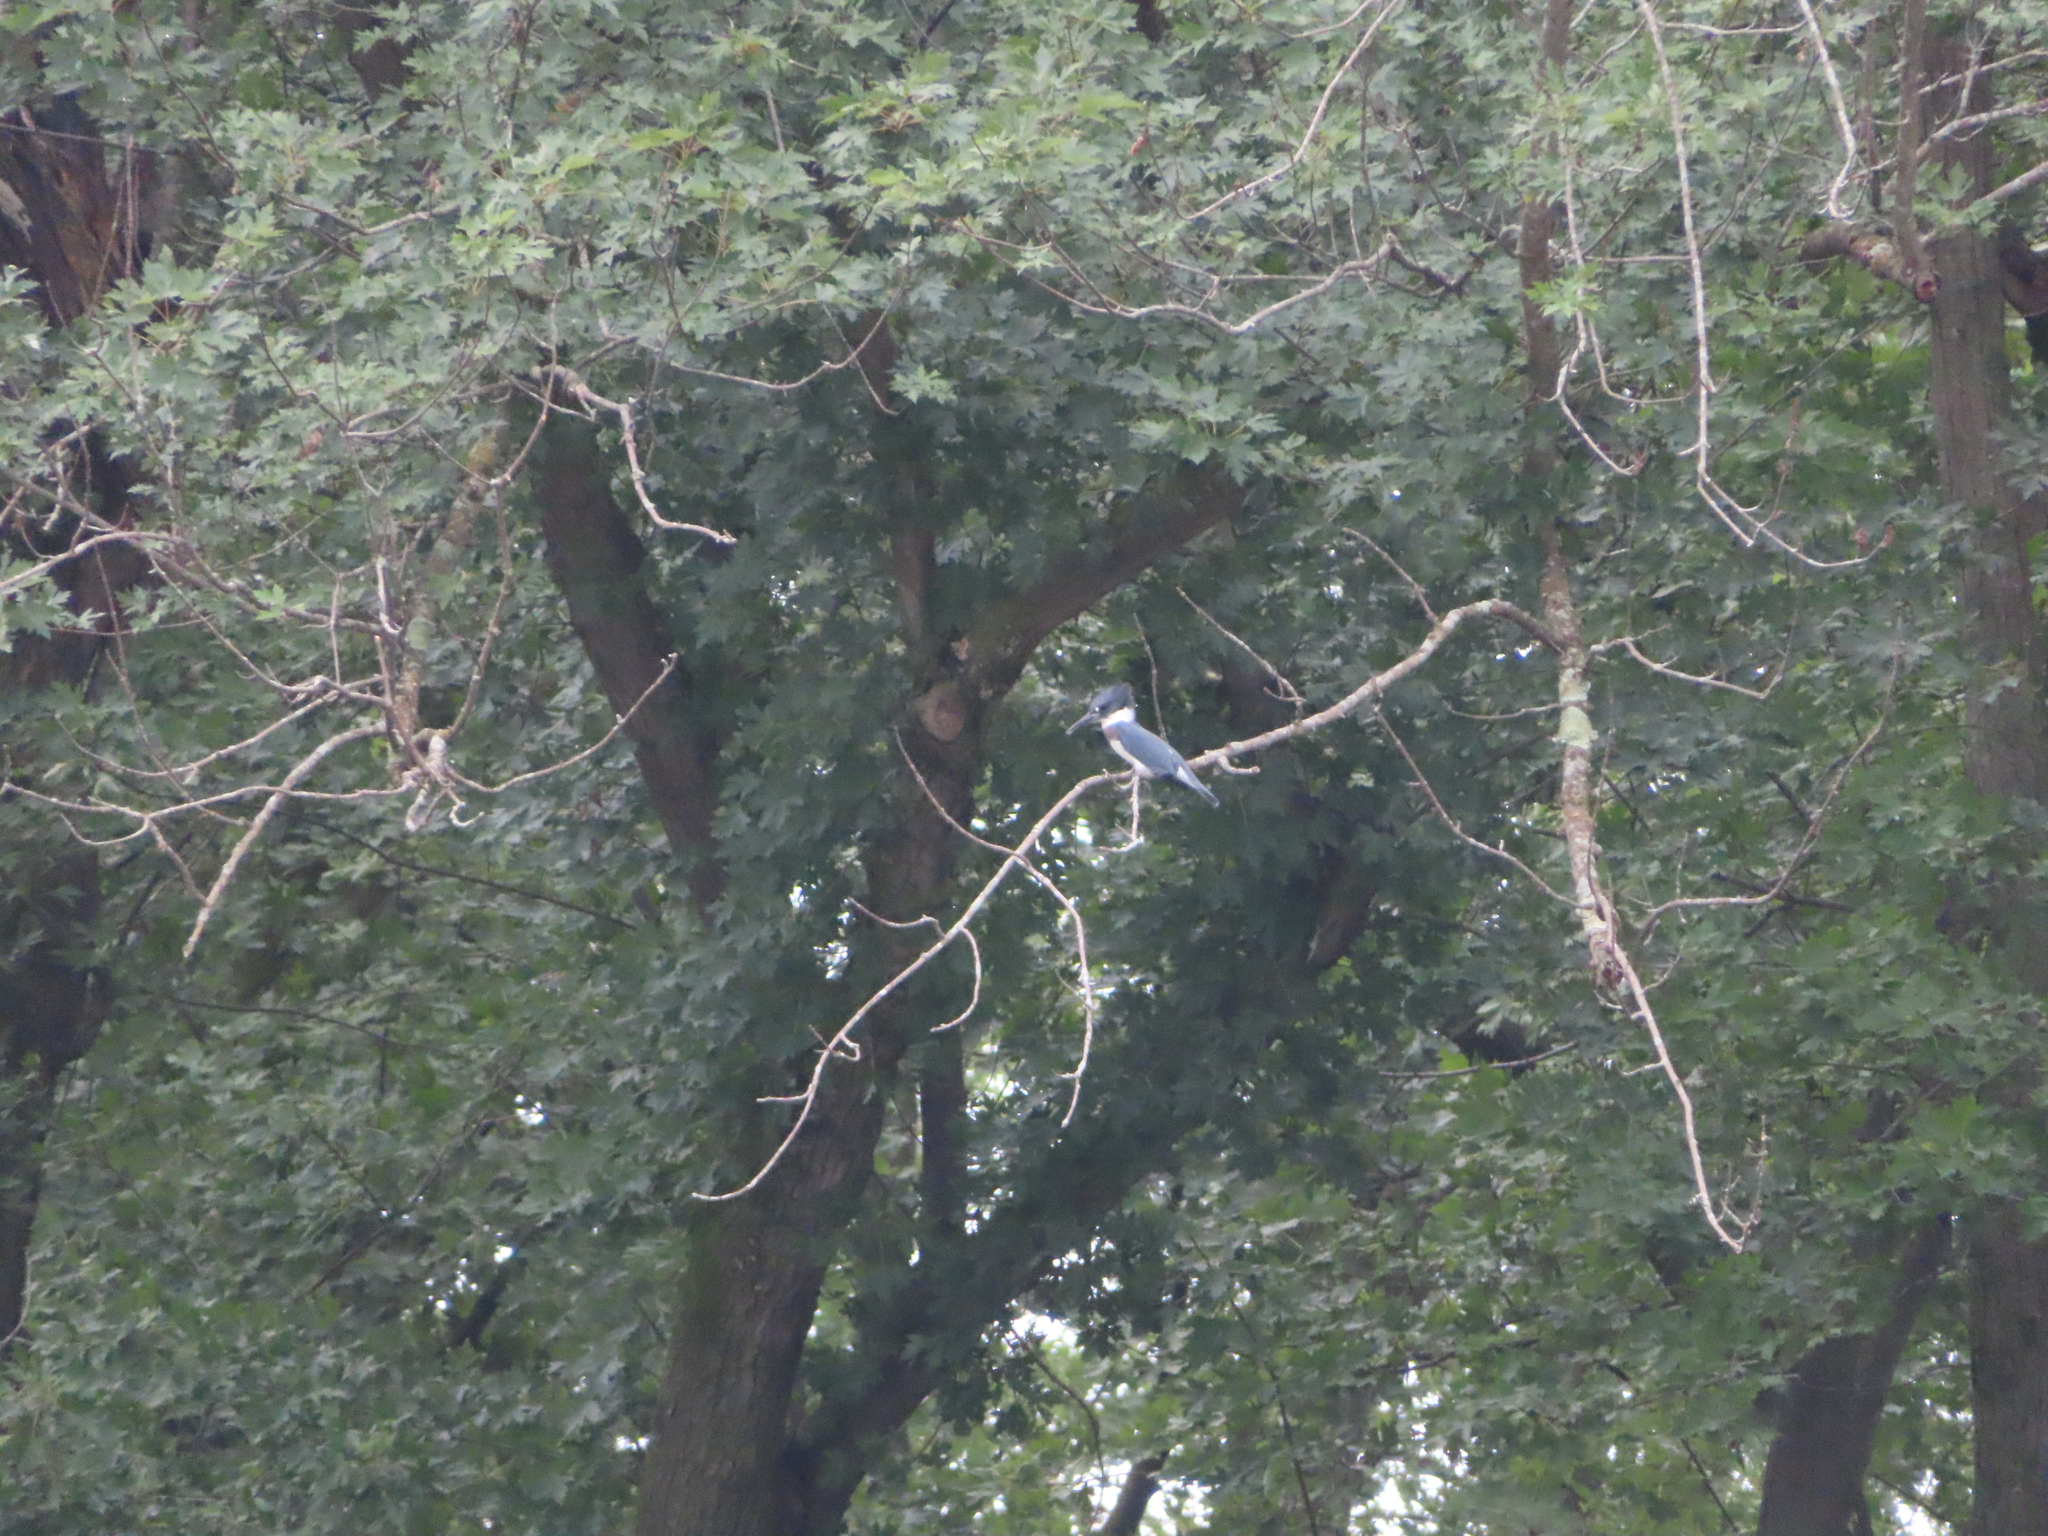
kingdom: Animalia
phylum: Chordata
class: Aves
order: Coraciiformes
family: Alcedinidae
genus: Megaceryle
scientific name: Megaceryle alcyon
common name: Belted kingfisher
